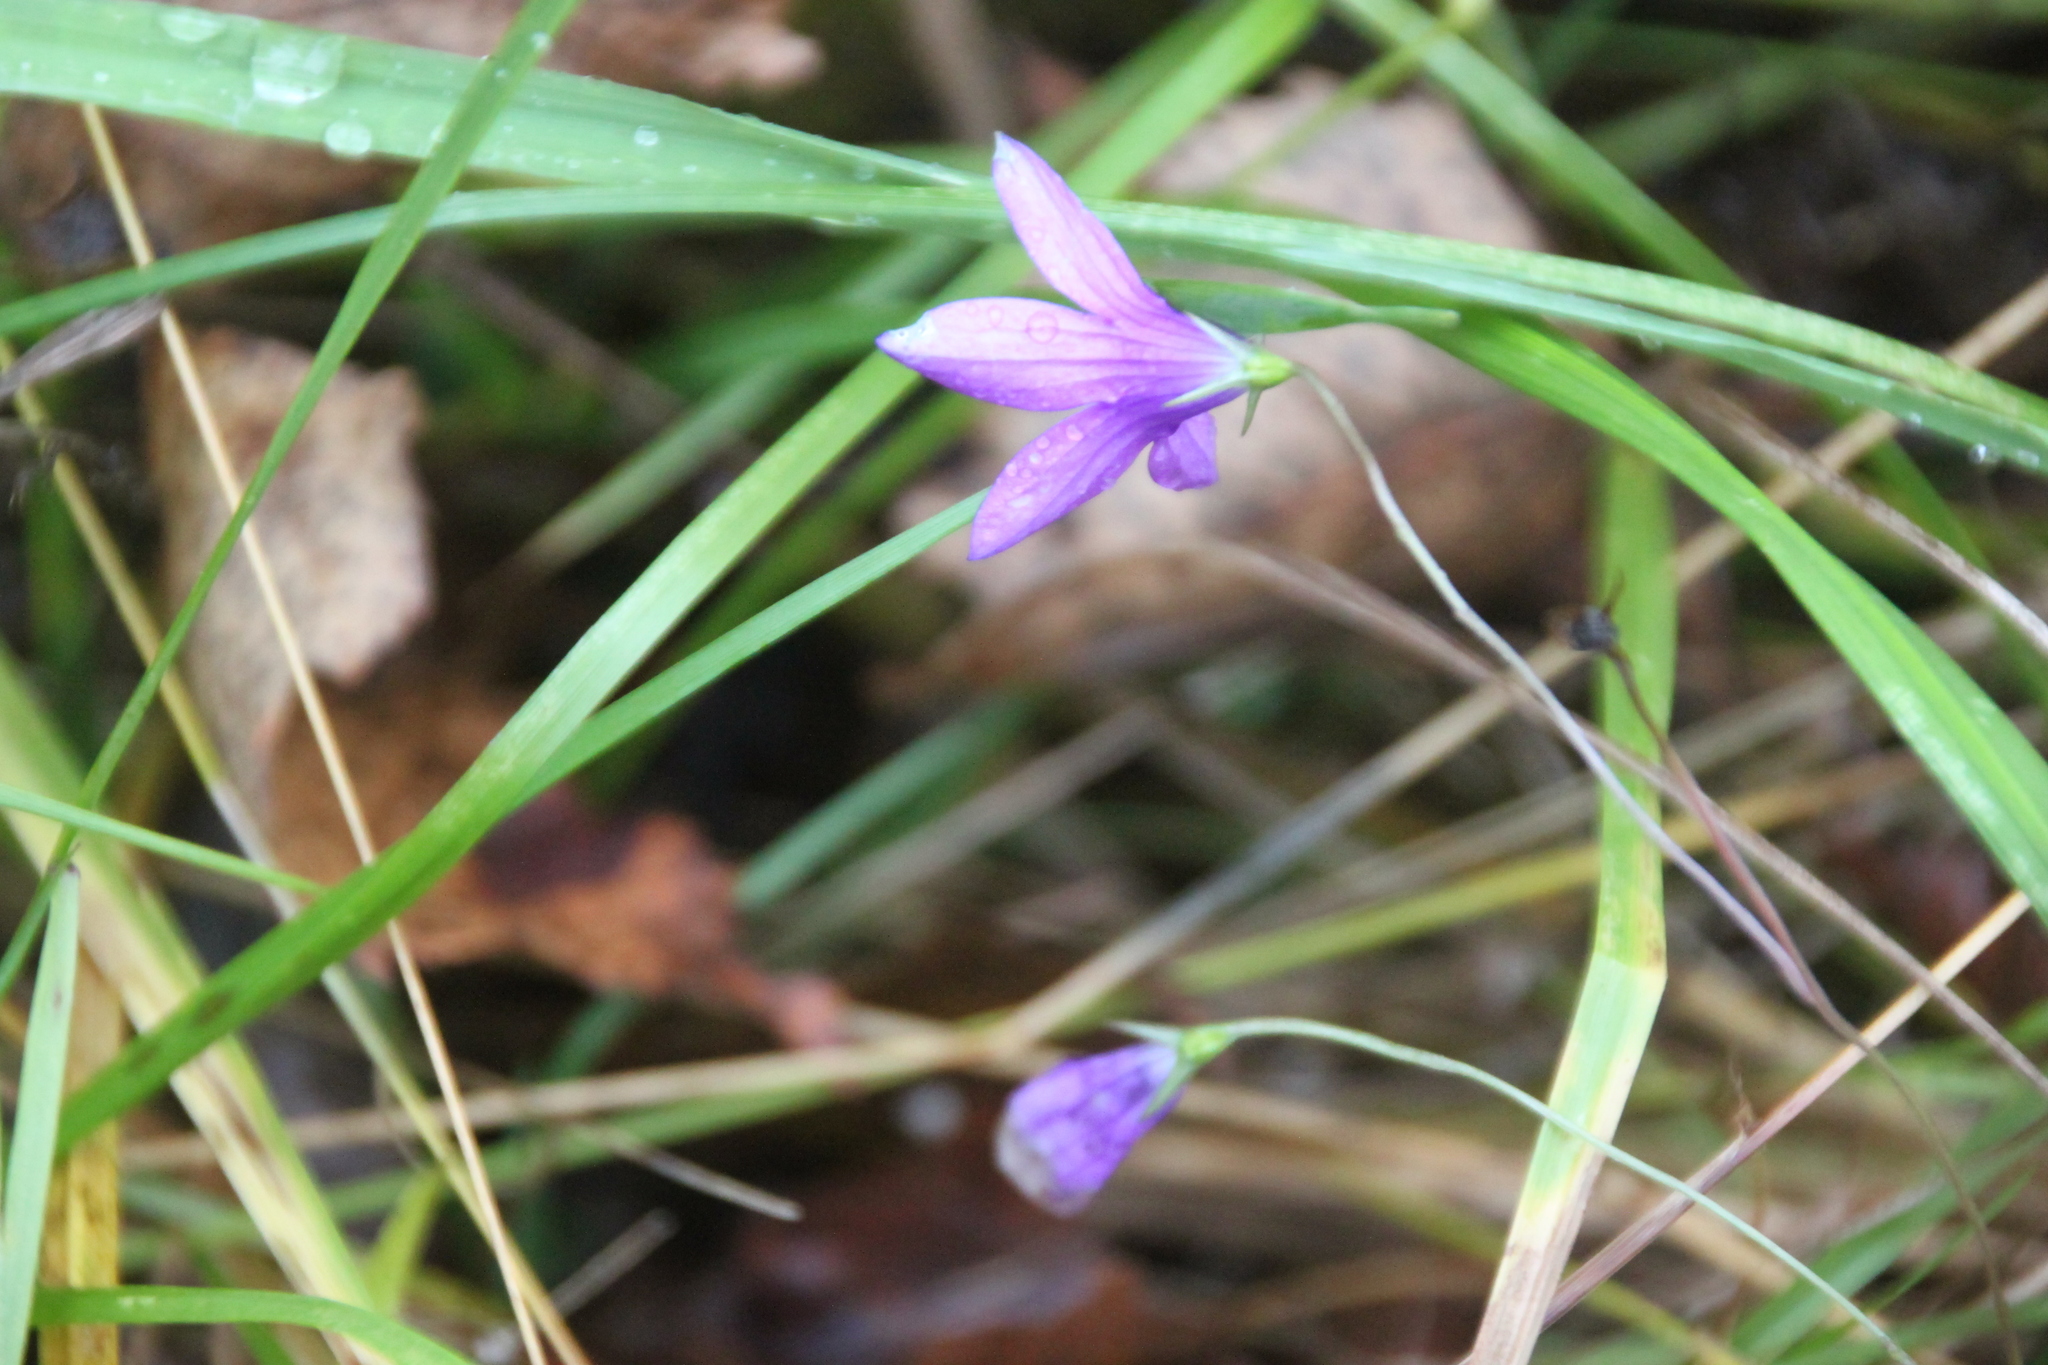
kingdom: Plantae
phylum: Tracheophyta
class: Magnoliopsida
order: Asterales
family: Campanulaceae
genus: Campanula
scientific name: Campanula patula
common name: Spreading bellflower
